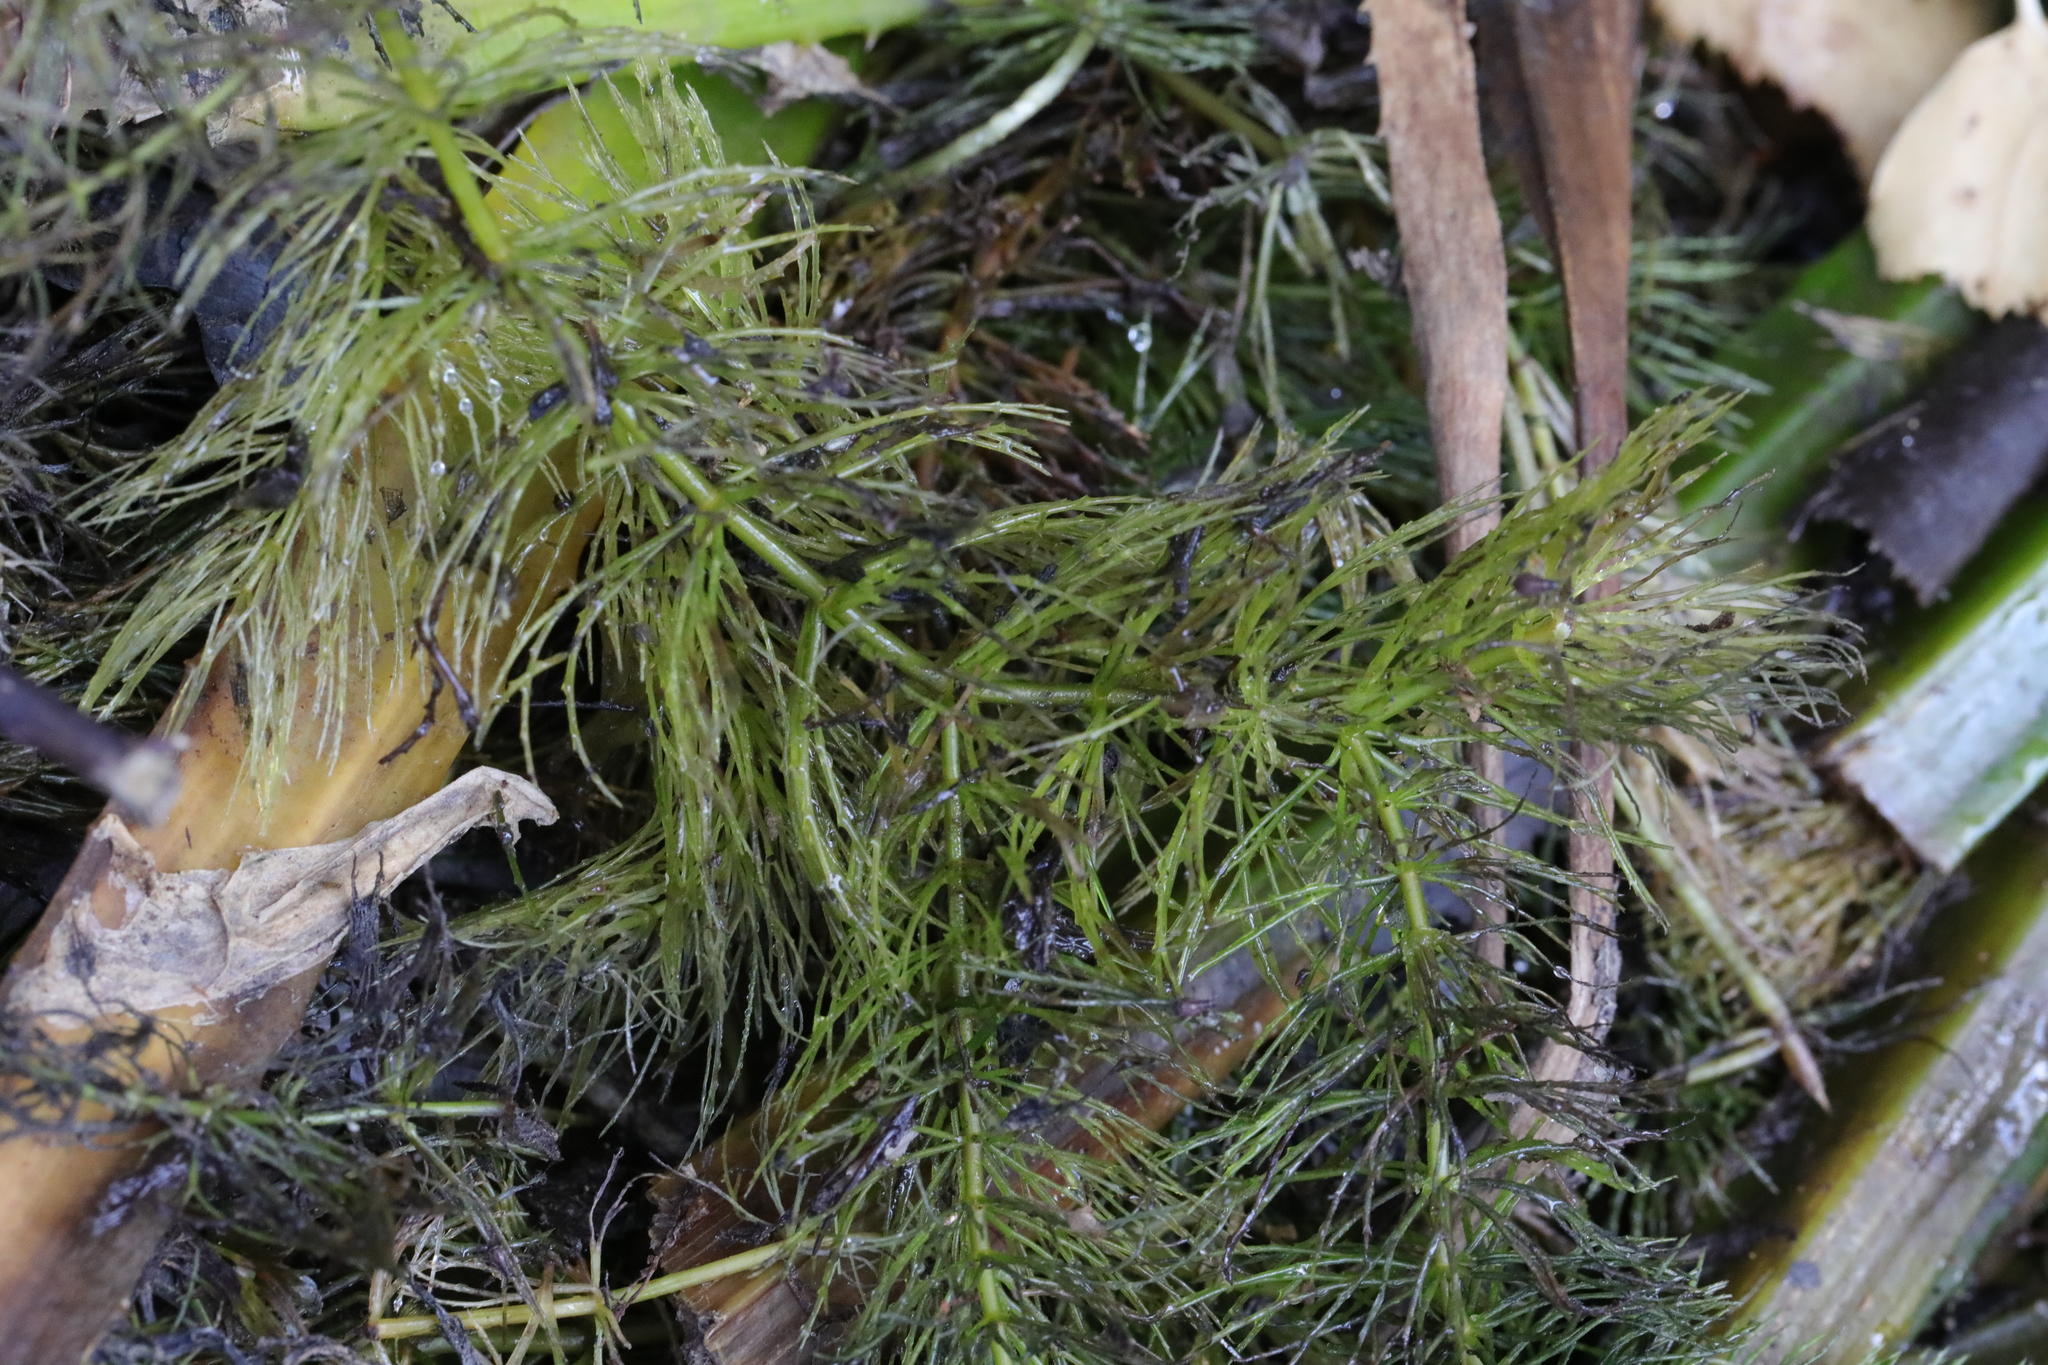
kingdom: Plantae
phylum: Tracheophyta
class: Magnoliopsida
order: Ceratophyllales
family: Ceratophyllaceae
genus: Ceratophyllum
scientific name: Ceratophyllum demersum
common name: Rigid hornwort
